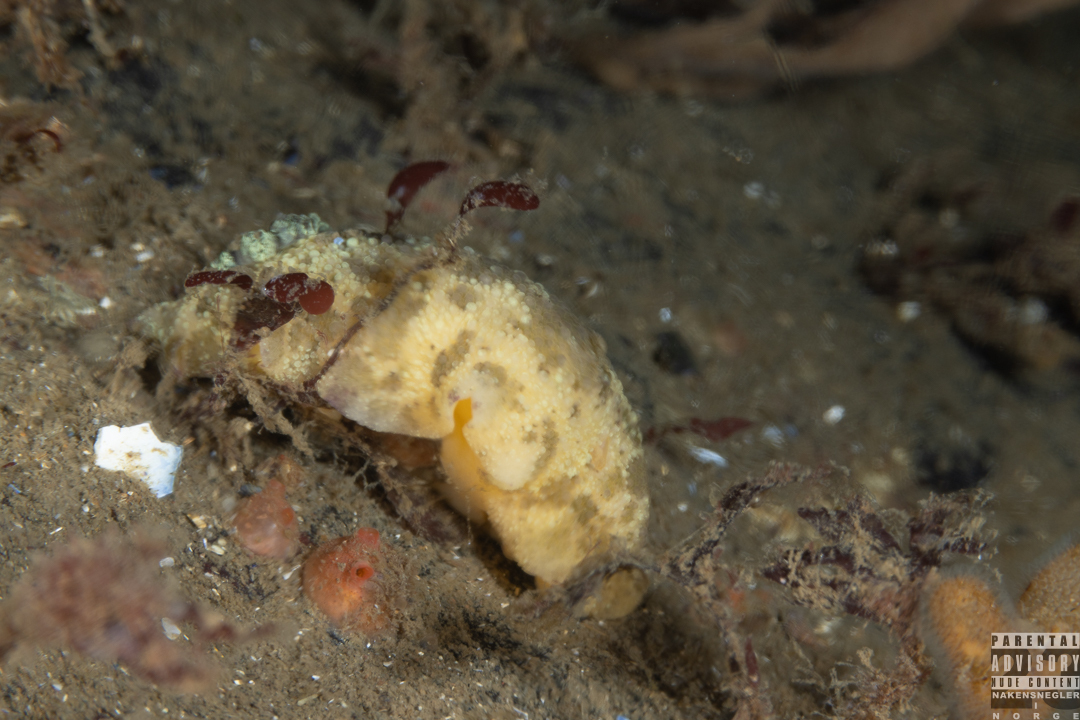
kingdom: Animalia
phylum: Mollusca
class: Gastropoda
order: Nudibranchia
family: Dorididae
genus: Doris
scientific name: Doris pseudoargus
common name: Sea lemon
